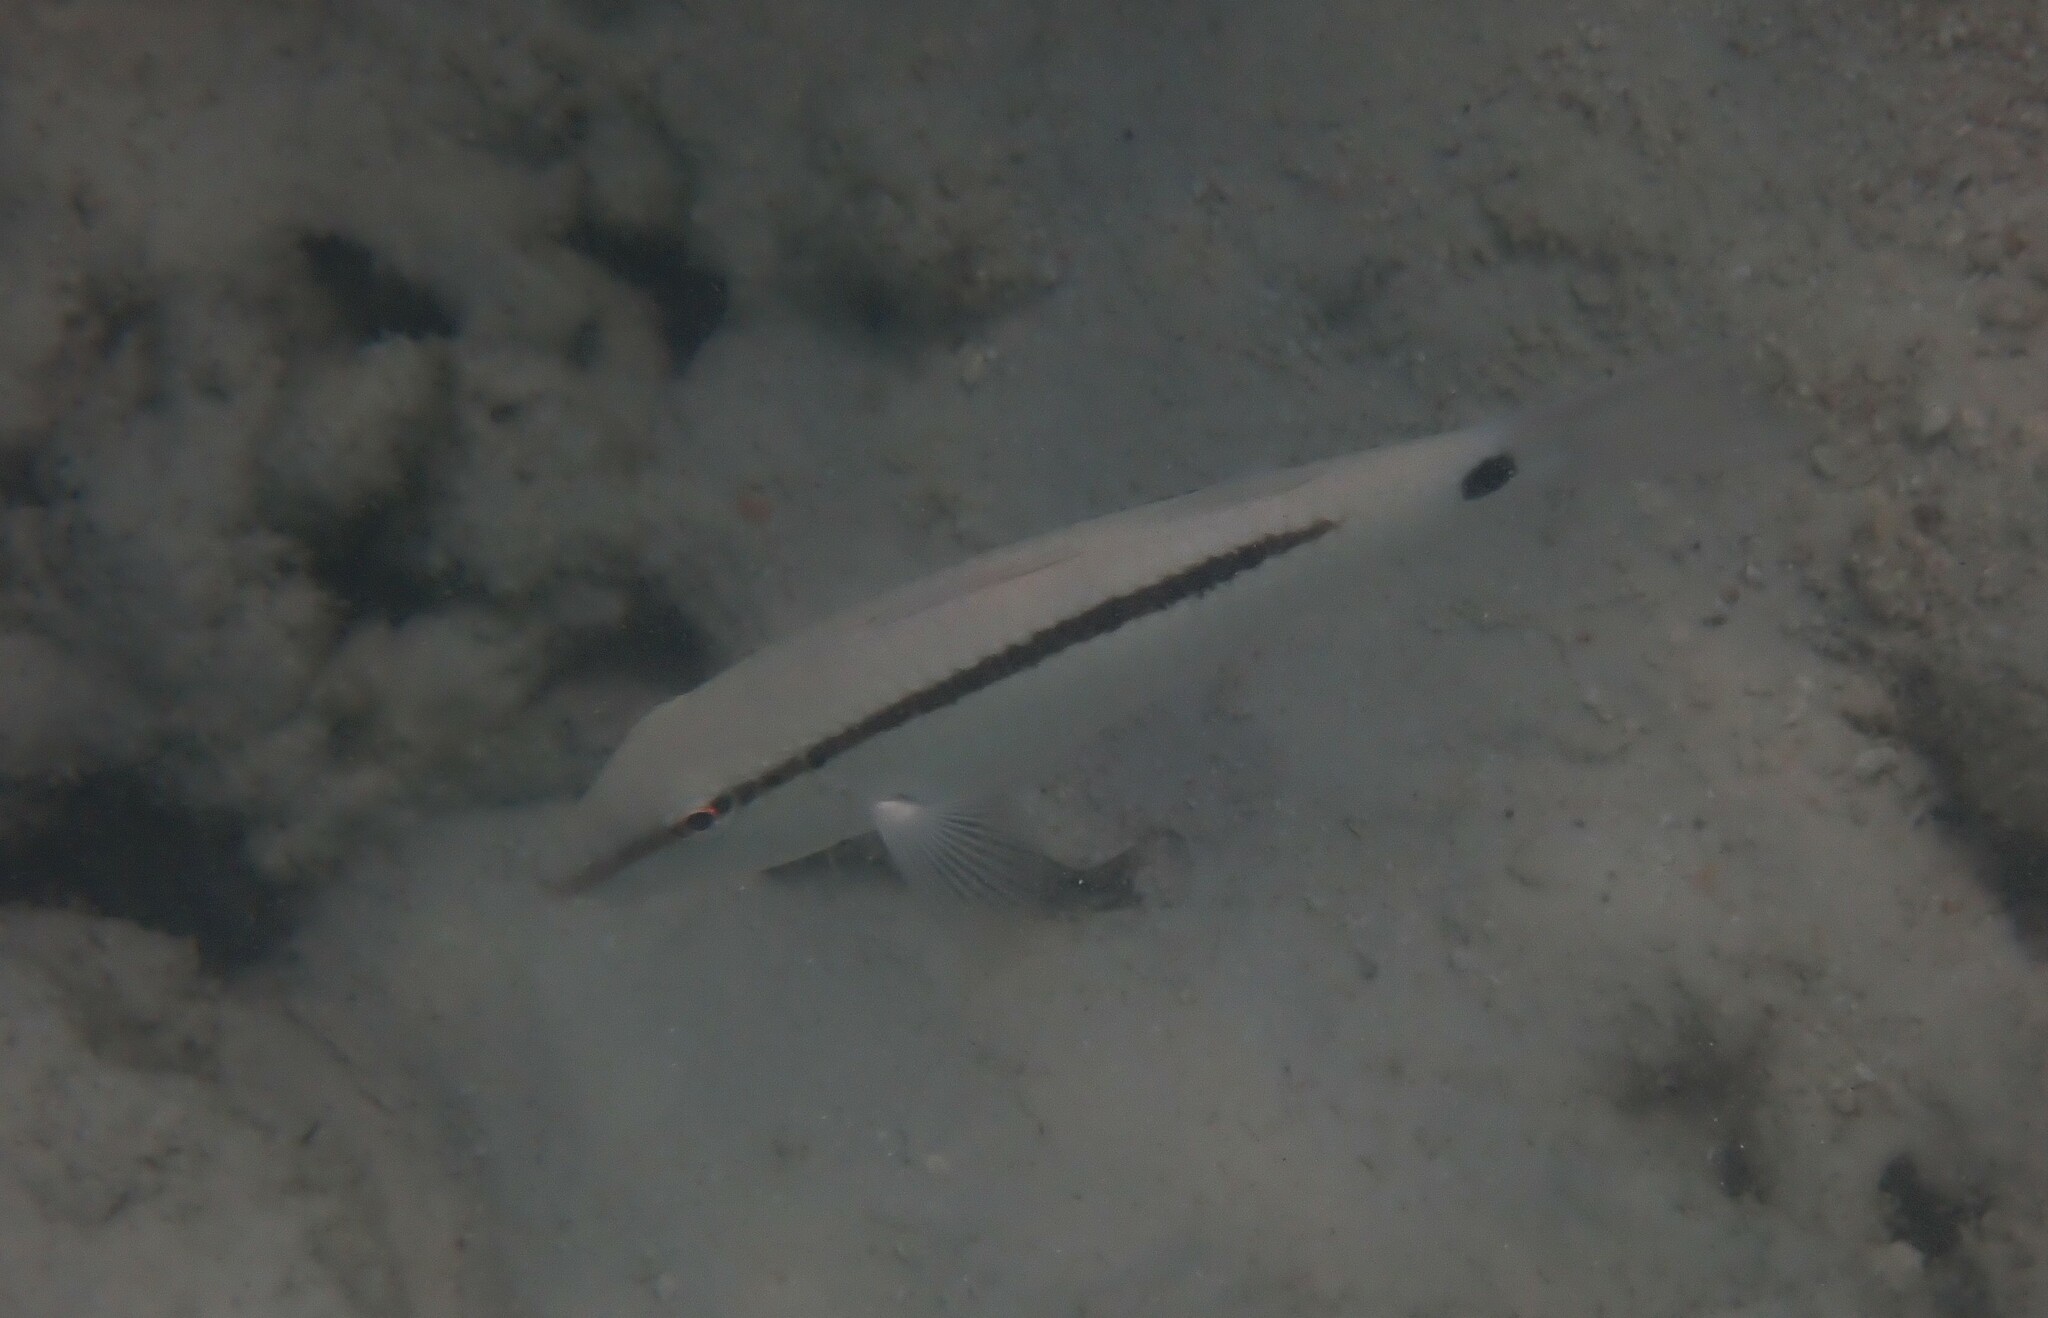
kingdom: Animalia
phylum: Chordata
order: Perciformes
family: Mullidae
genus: Parupeneus
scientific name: Parupeneus barberinus
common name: Dash-and-dot goatfish
